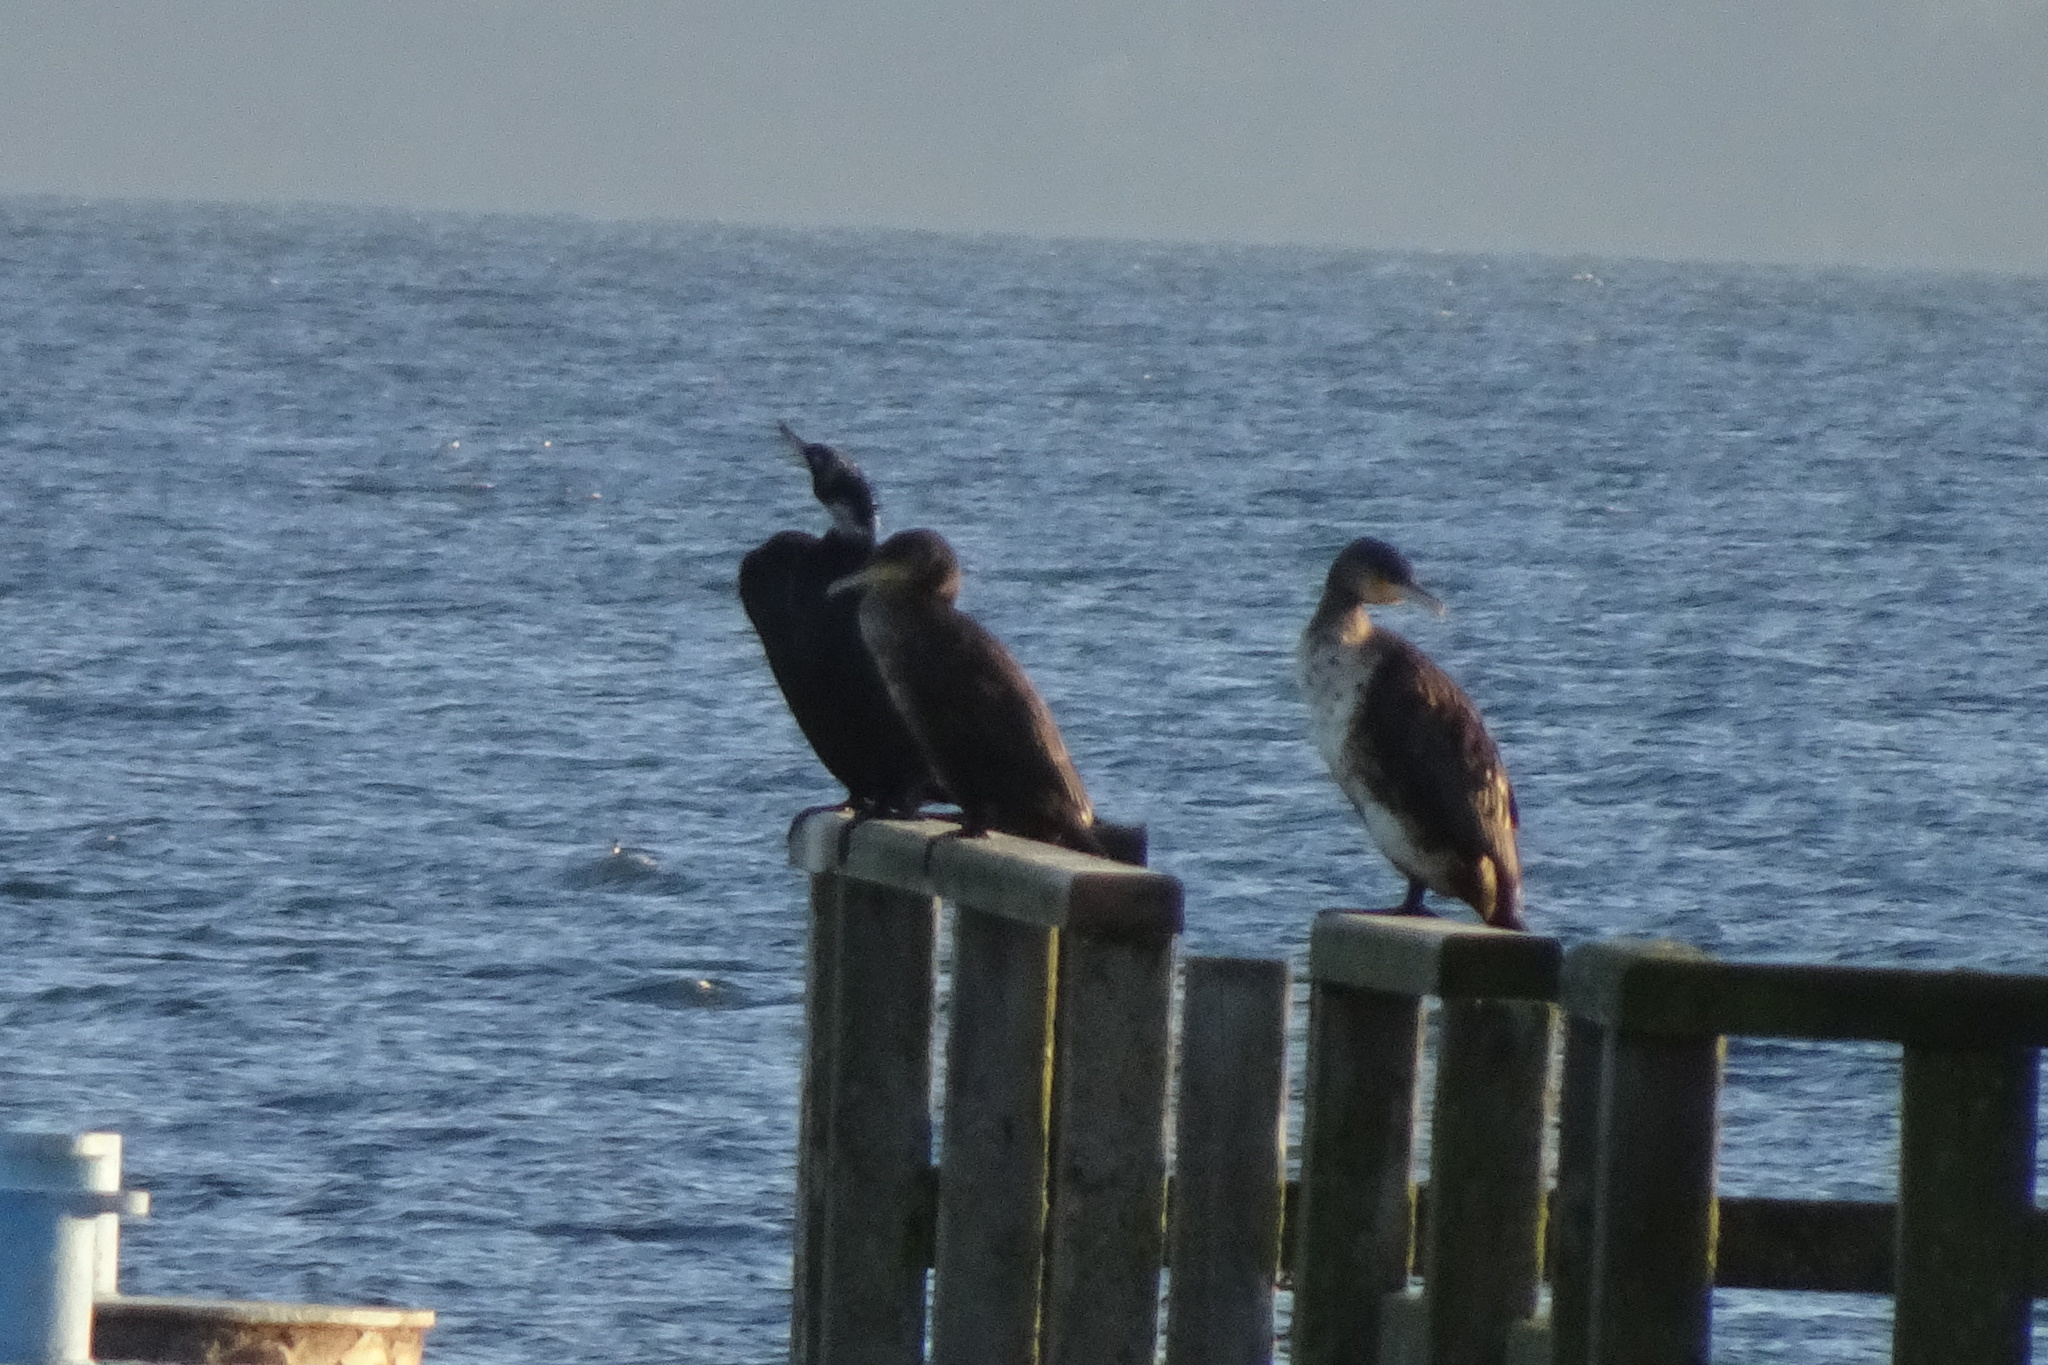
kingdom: Animalia
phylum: Chordata
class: Aves
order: Suliformes
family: Phalacrocoracidae
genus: Phalacrocorax
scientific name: Phalacrocorax carbo
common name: Great cormorant
